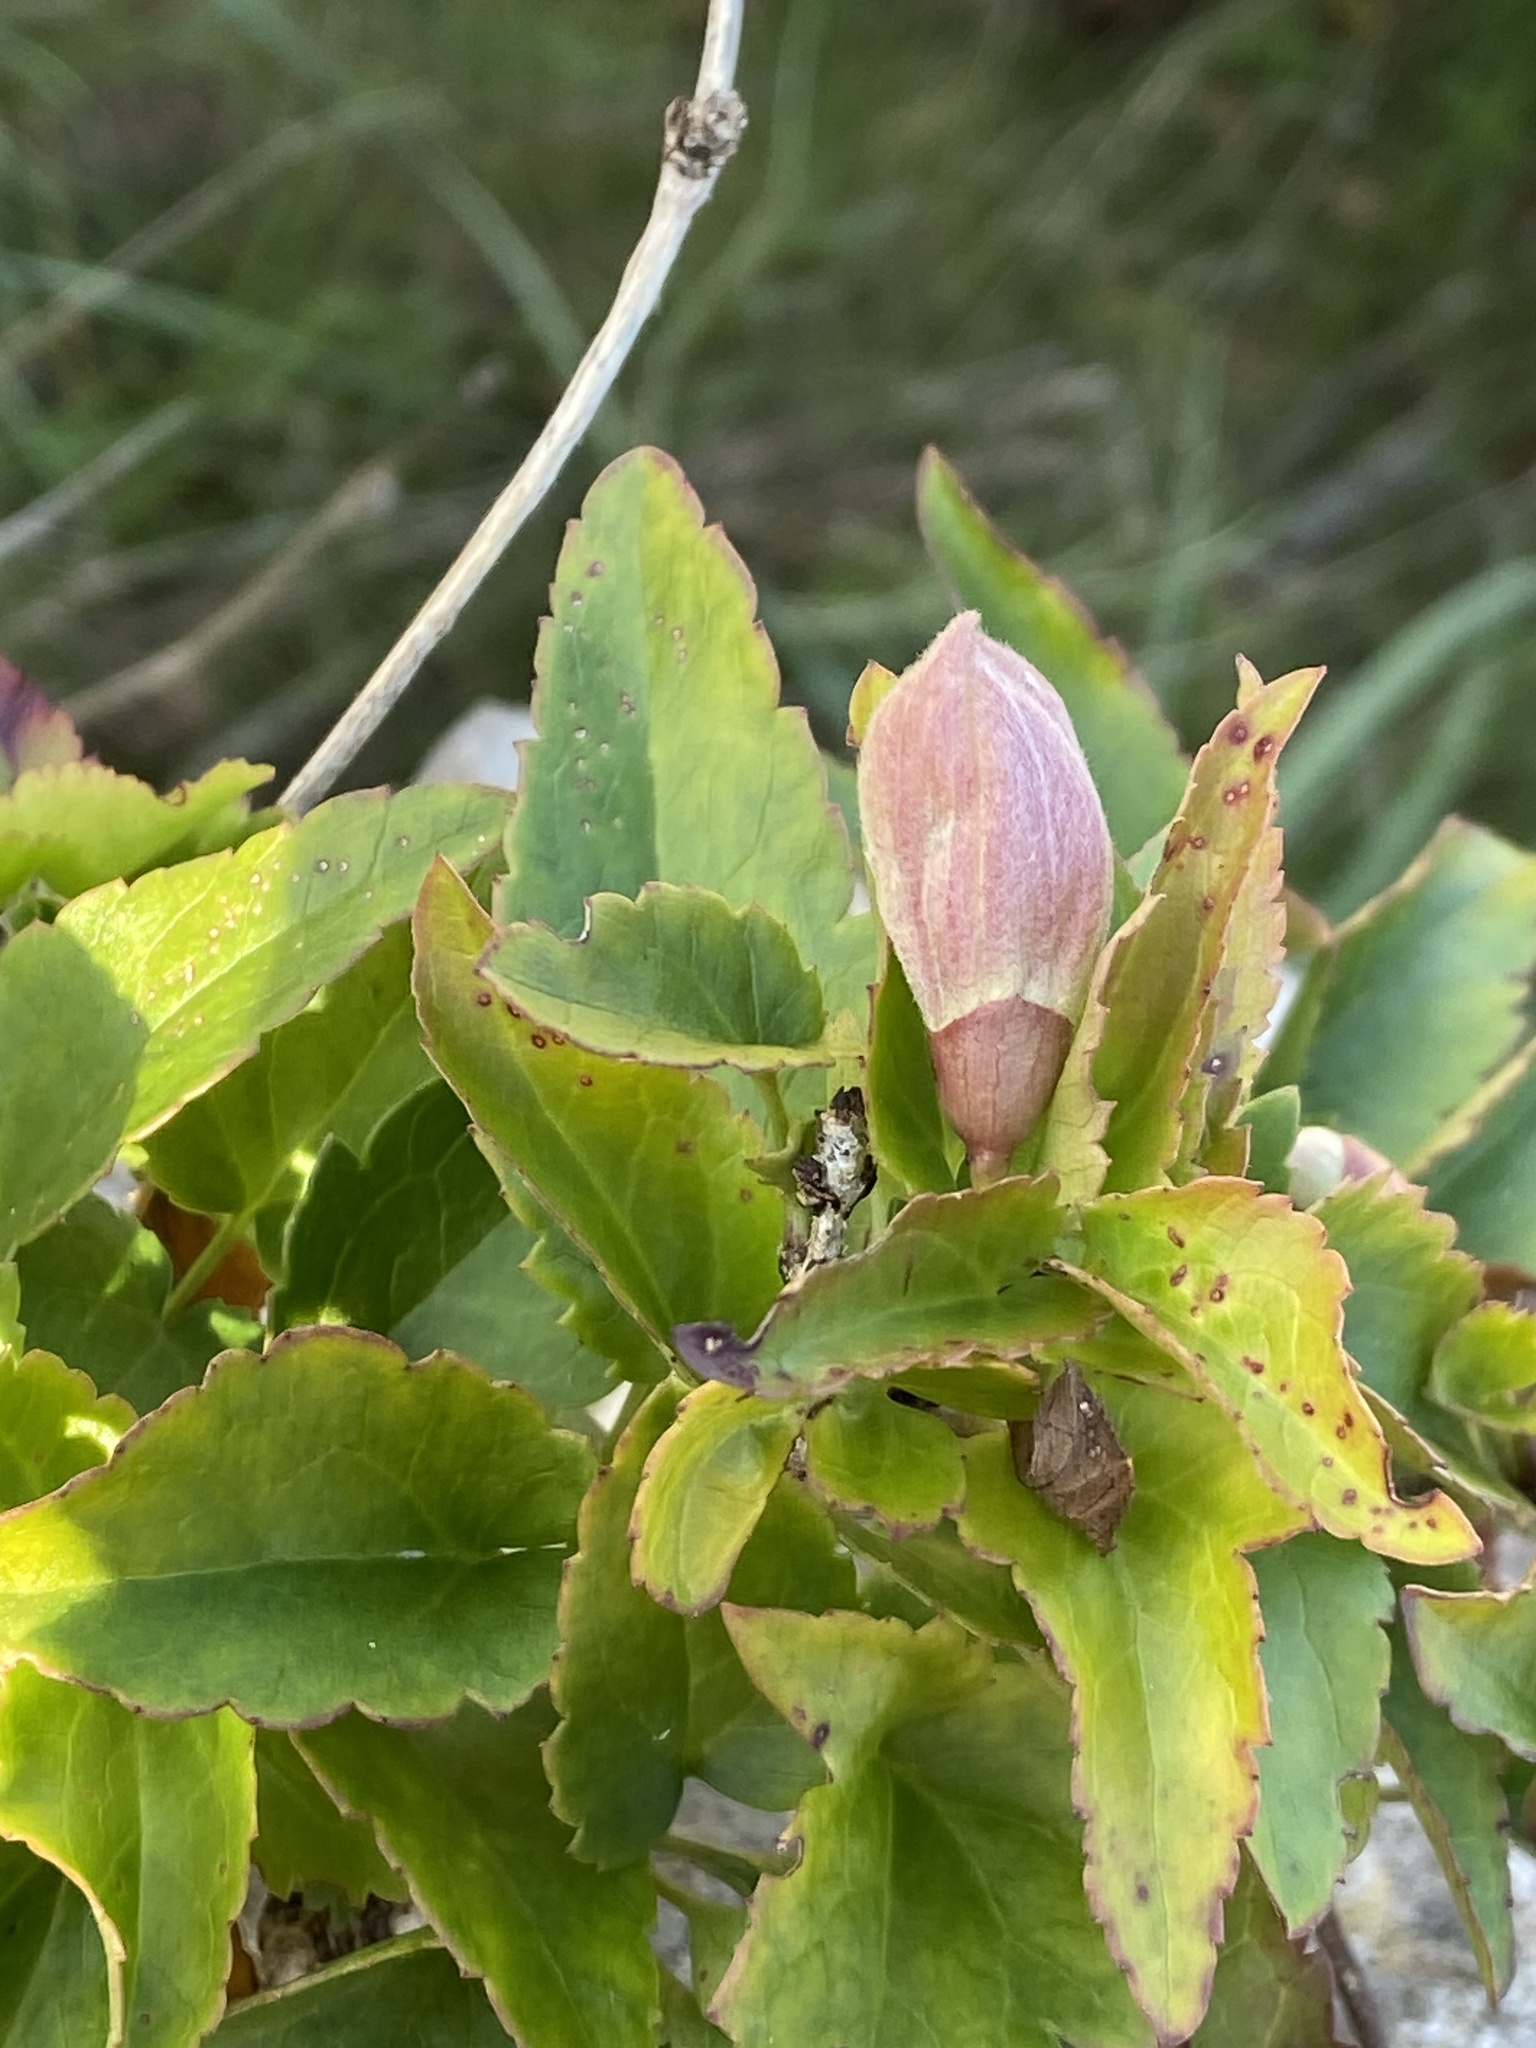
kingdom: Plantae
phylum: Tracheophyta
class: Magnoliopsida
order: Ranunculales
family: Ranunculaceae
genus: Clematis
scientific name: Clematis cirrhosa
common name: Early virgin's-bower
